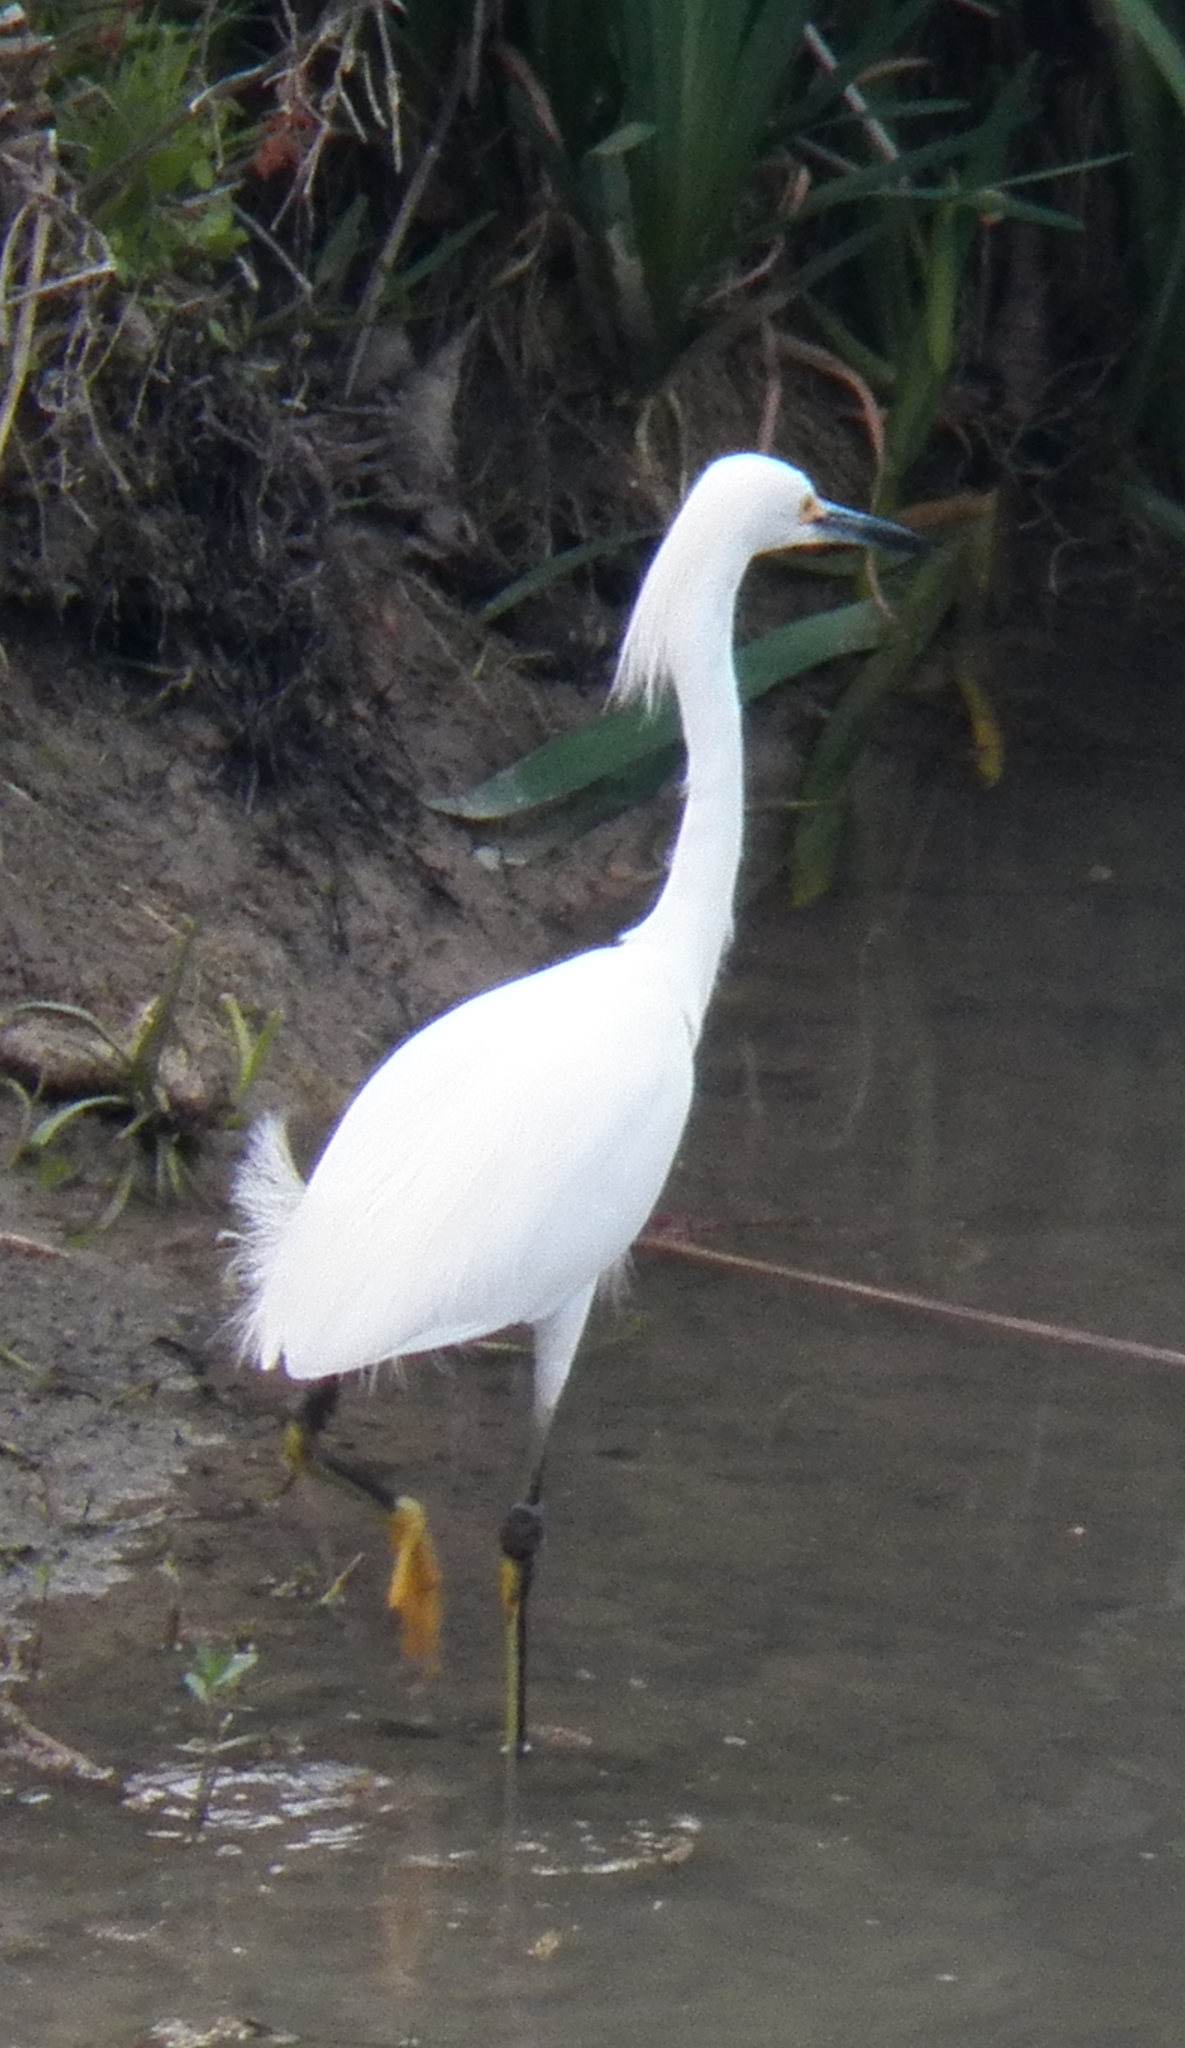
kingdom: Animalia
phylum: Chordata
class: Aves
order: Pelecaniformes
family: Ardeidae
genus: Egretta
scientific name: Egretta thula
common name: Snowy egret
